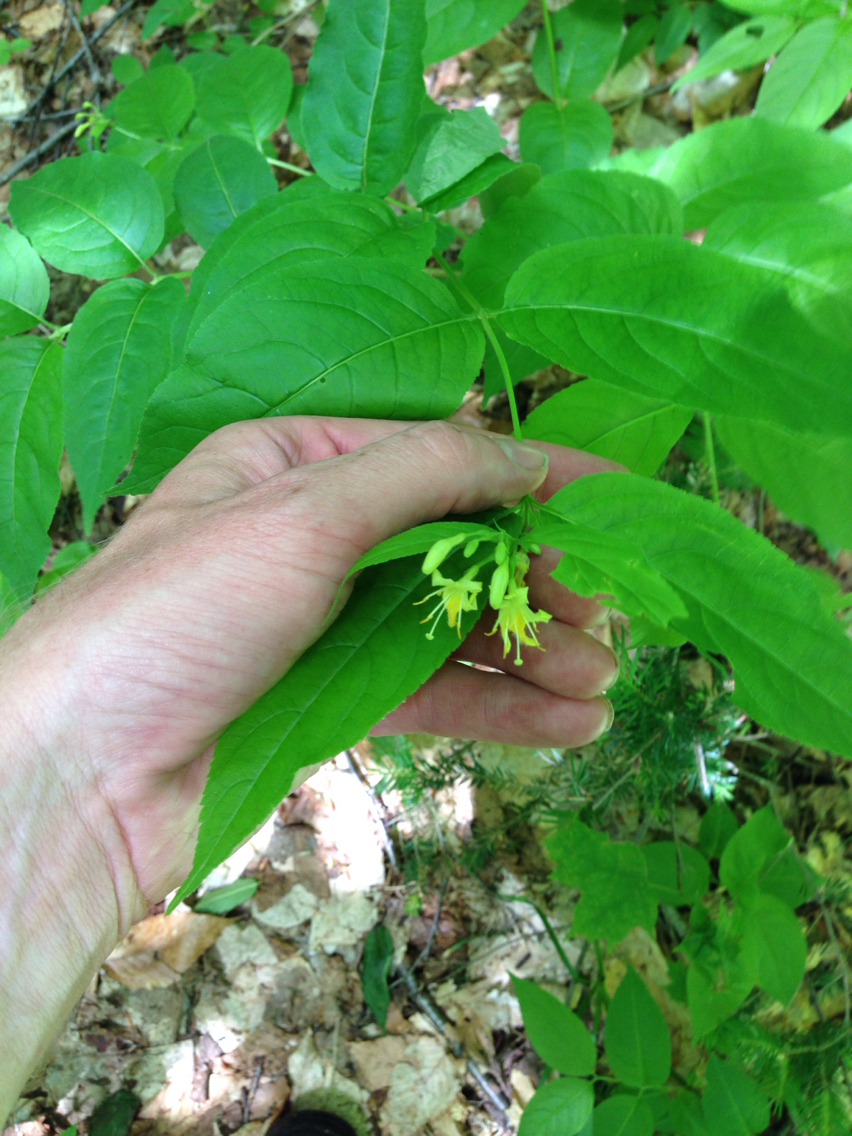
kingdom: Plantae
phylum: Tracheophyta
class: Magnoliopsida
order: Dipsacales
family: Caprifoliaceae
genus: Diervilla
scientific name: Diervilla lonicera
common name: Bush-honeysuckle
